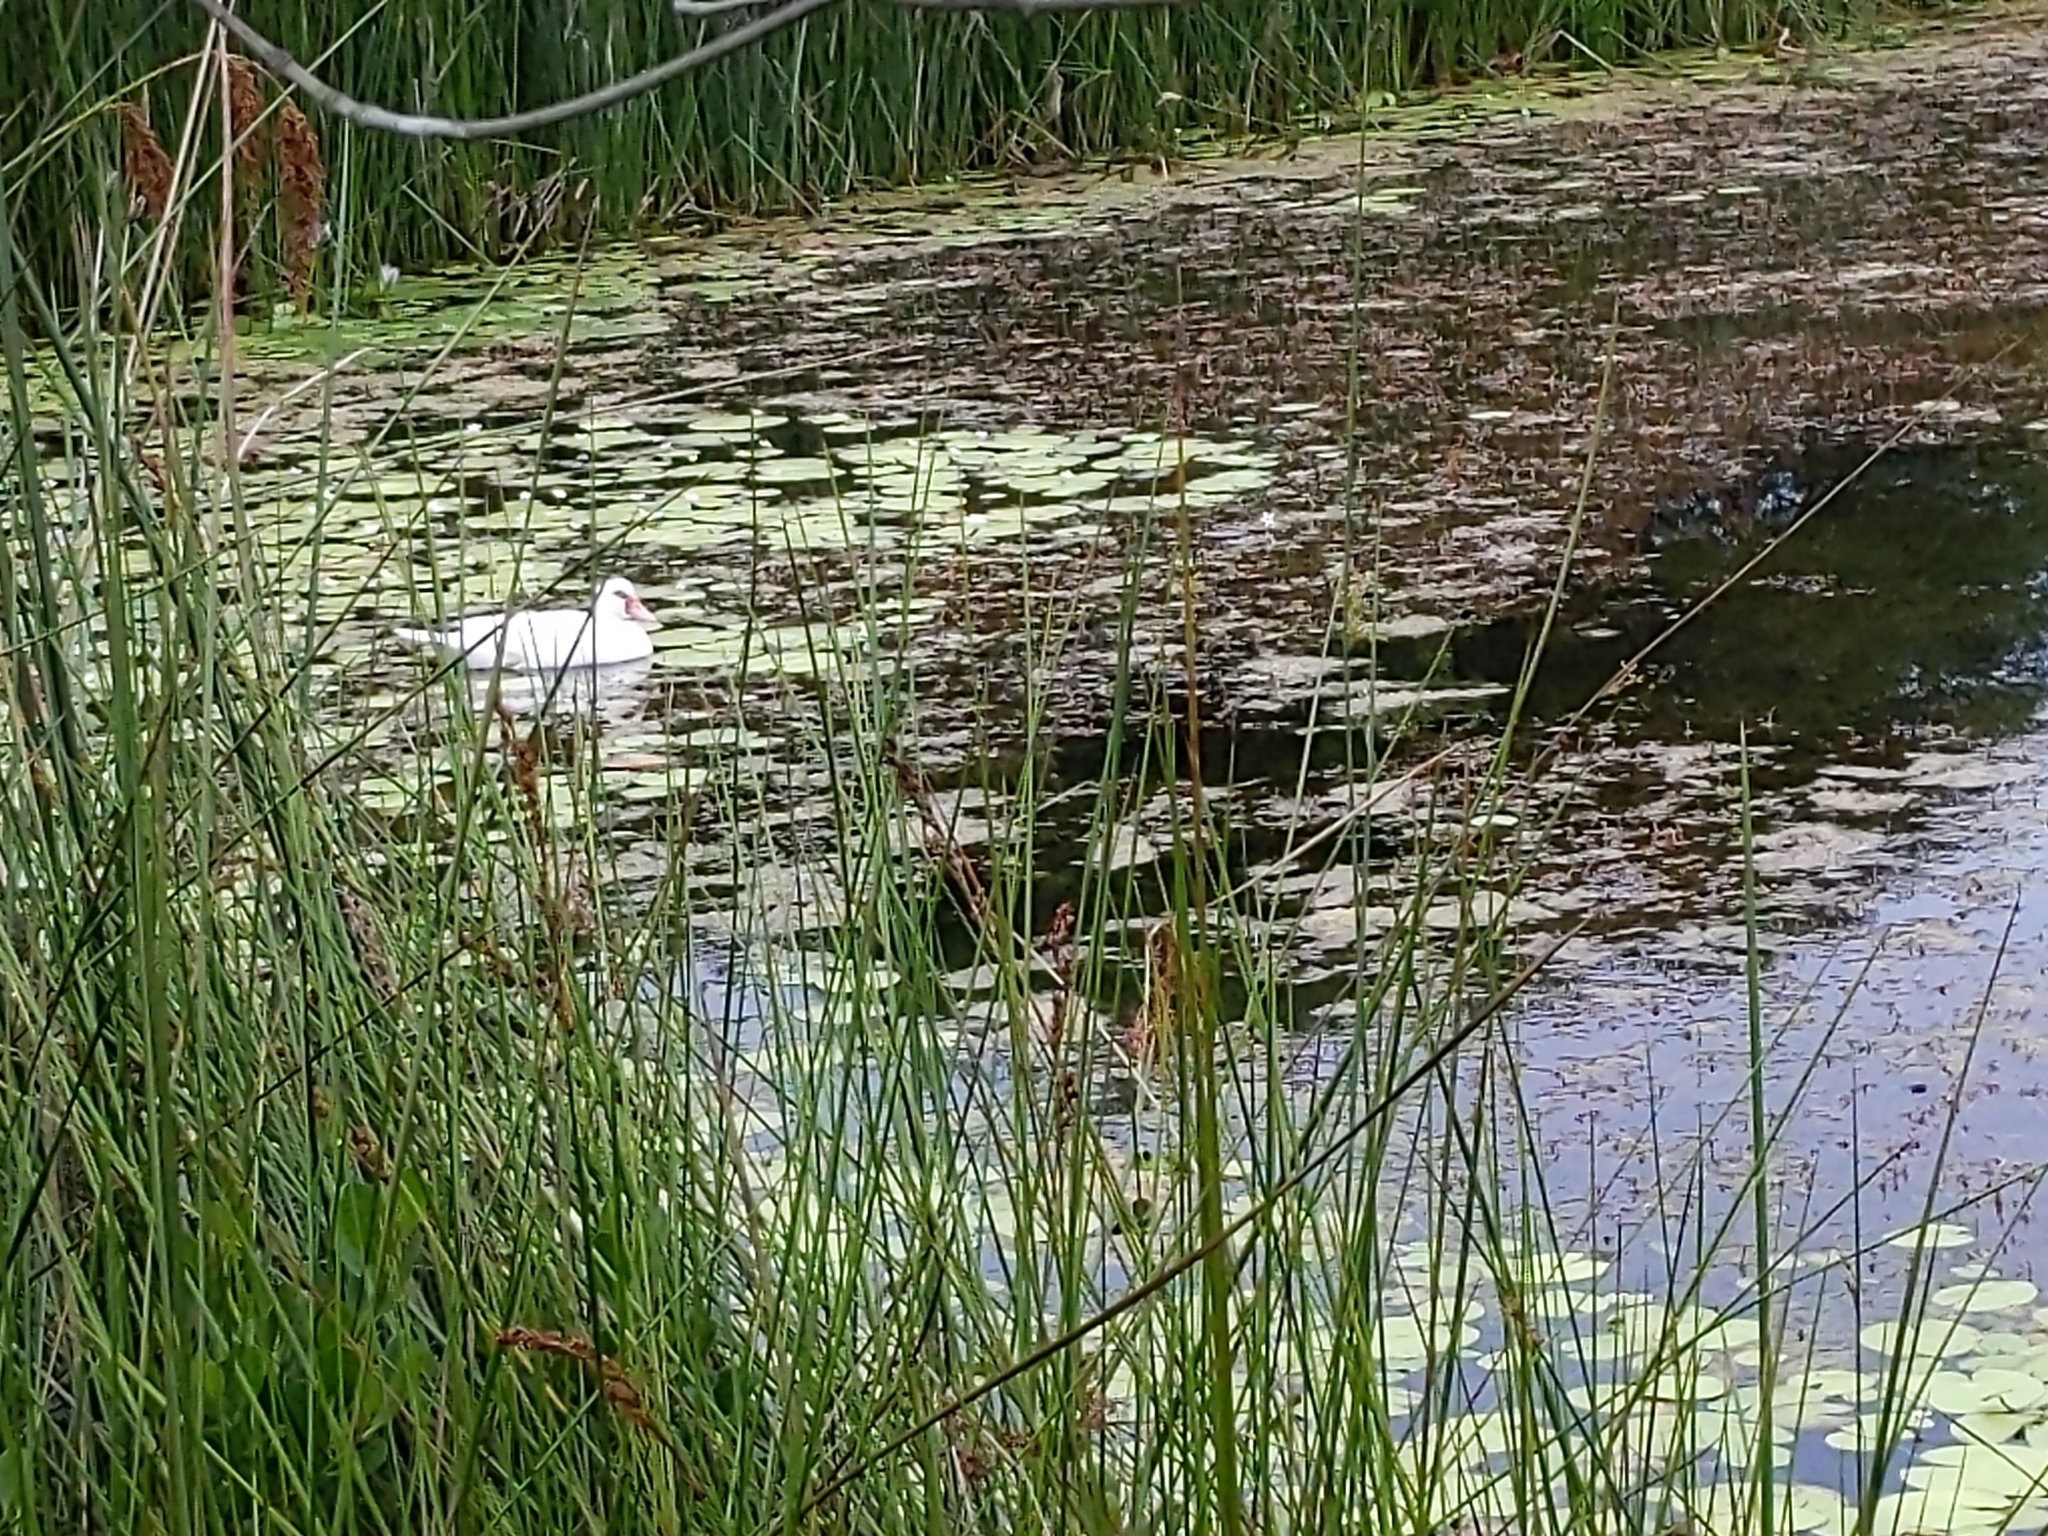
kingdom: Animalia
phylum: Chordata
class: Aves
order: Anseriformes
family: Anatidae
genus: Cairina
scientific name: Cairina moschata
